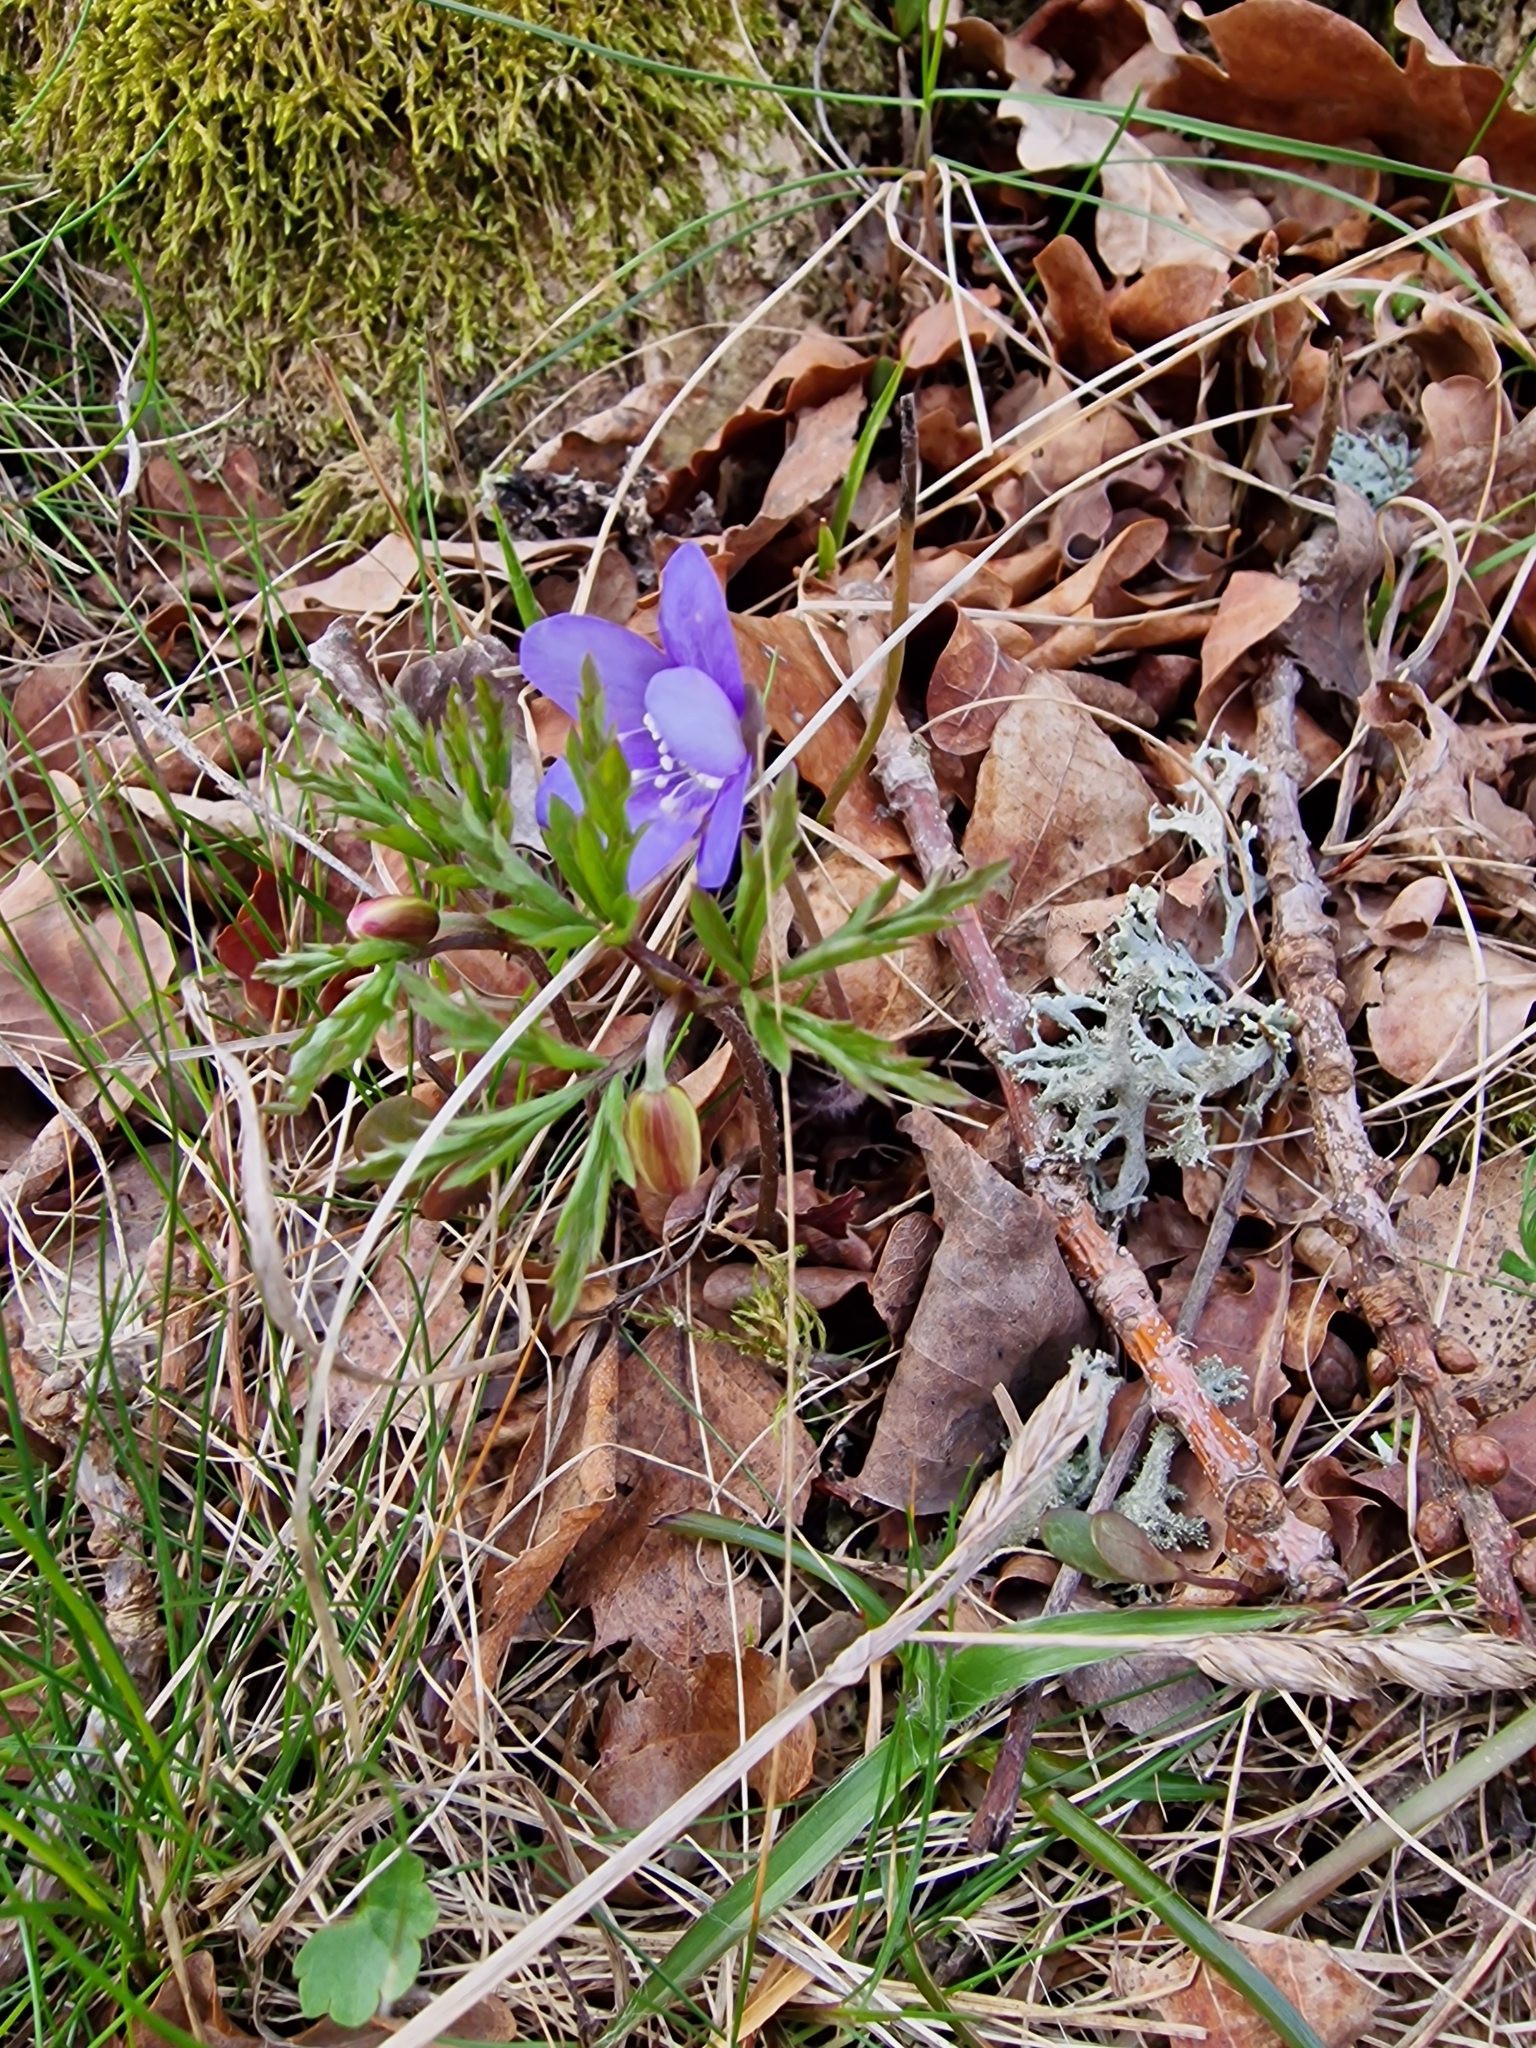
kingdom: Plantae
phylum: Tracheophyta
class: Magnoliopsida
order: Ranunculales
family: Ranunculaceae
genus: Hepatica
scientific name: Hepatica nobilis
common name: Liverleaf
